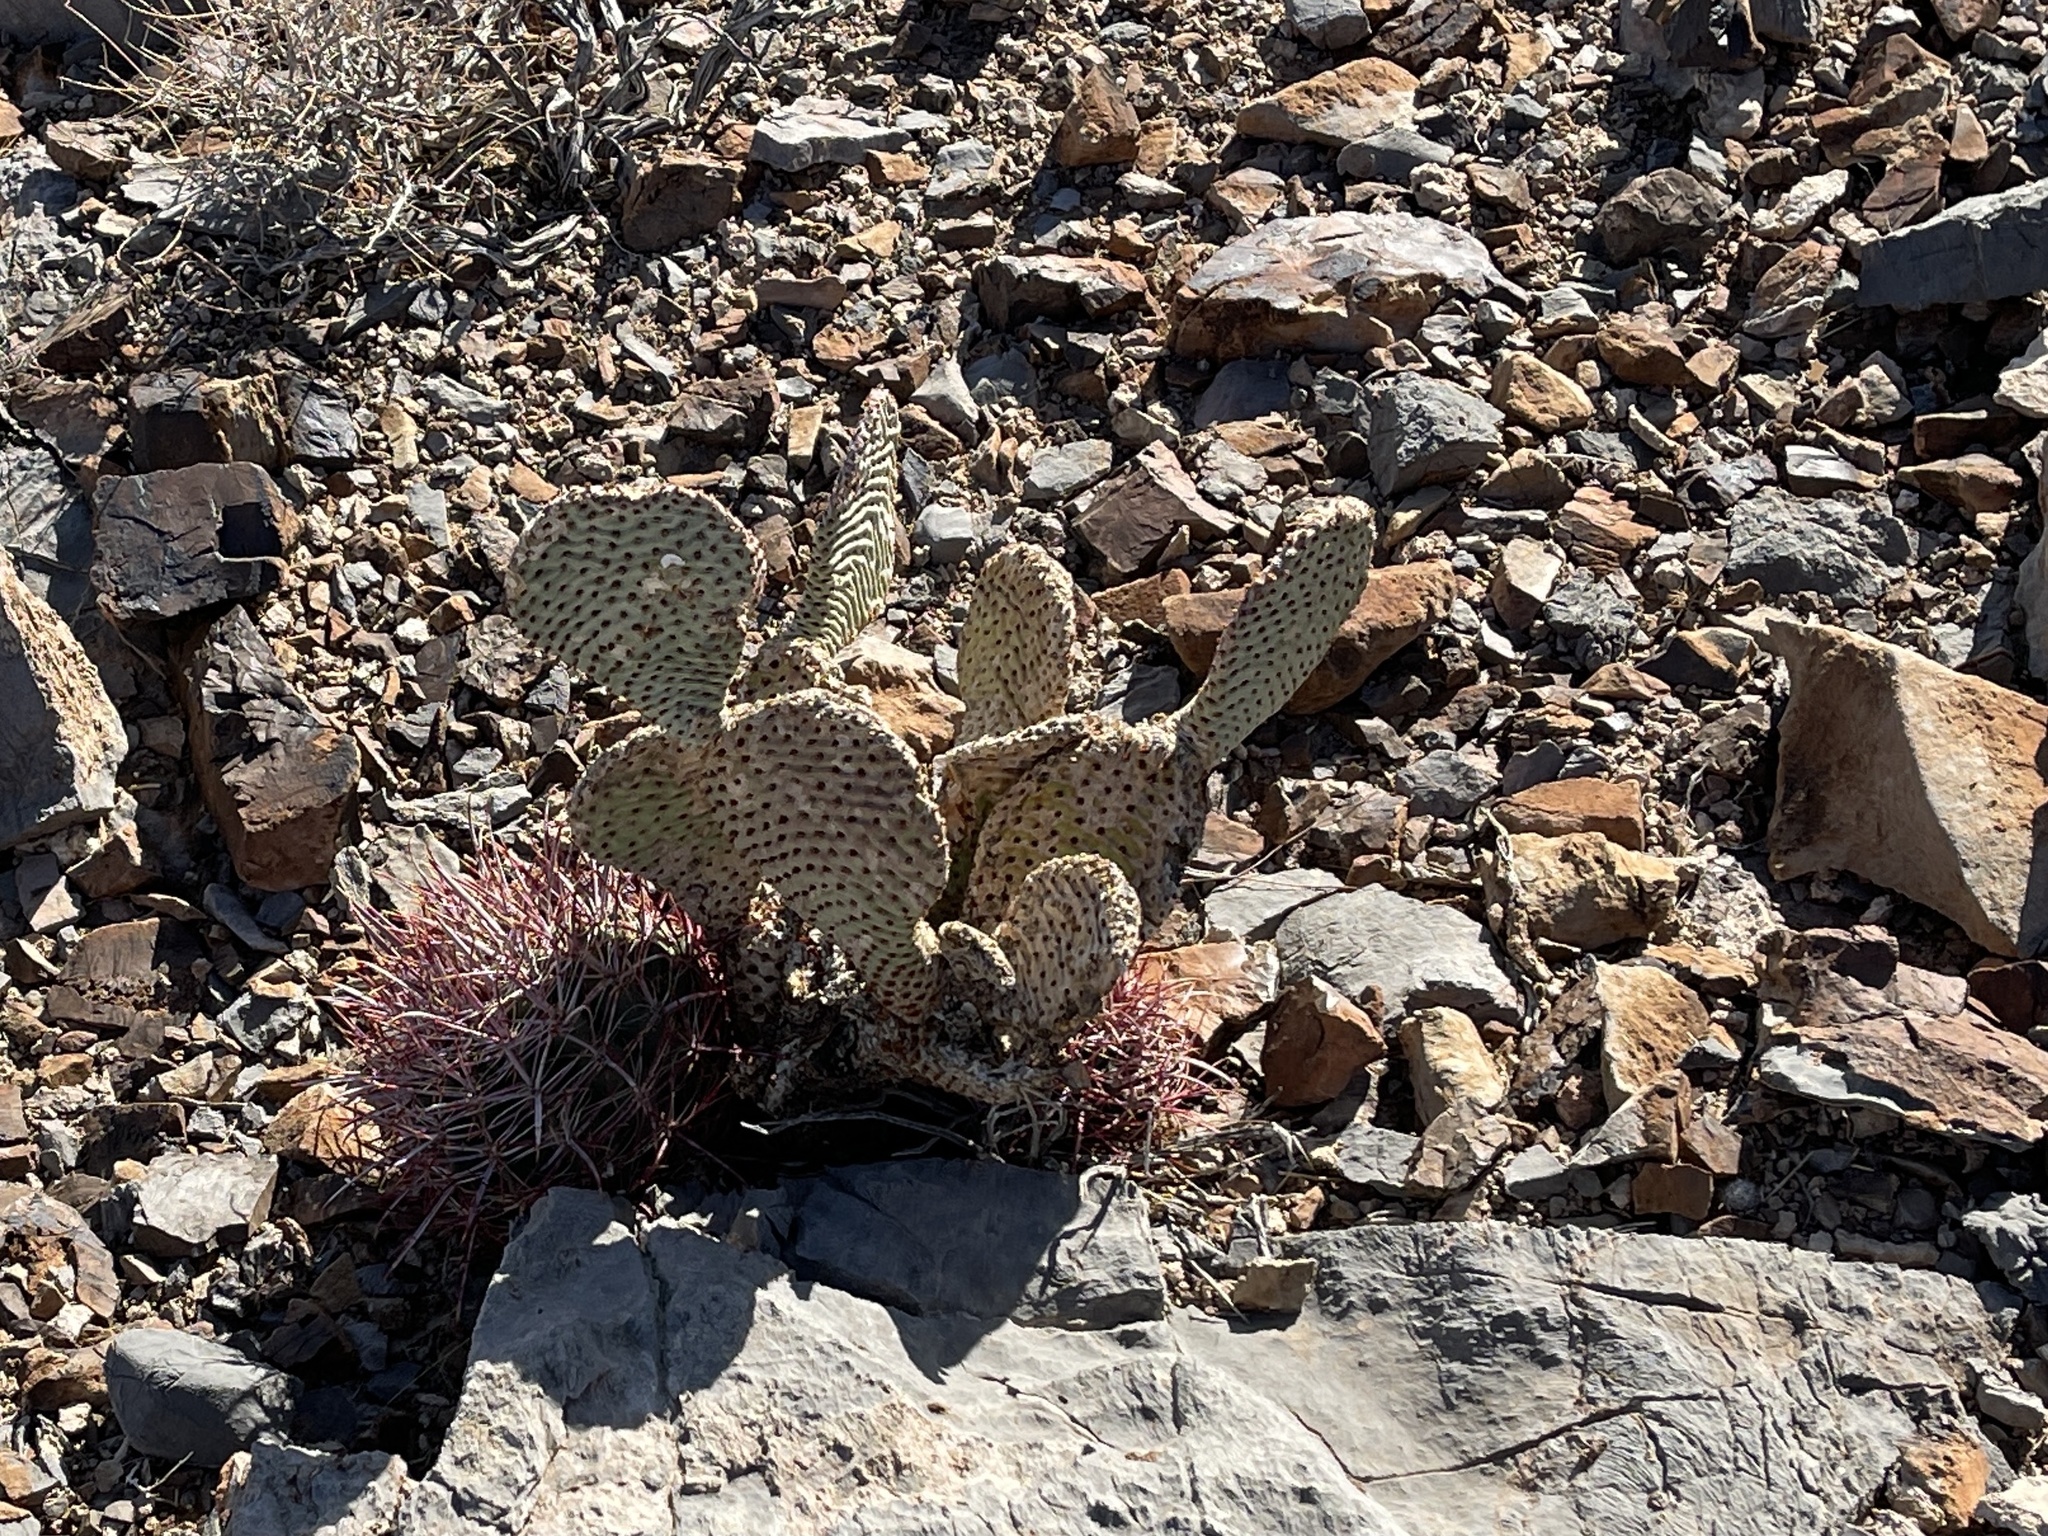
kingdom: Plantae
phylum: Tracheophyta
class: Magnoliopsida
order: Caryophyllales
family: Cactaceae
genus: Opuntia
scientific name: Opuntia basilaris
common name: Beavertail prickly-pear
